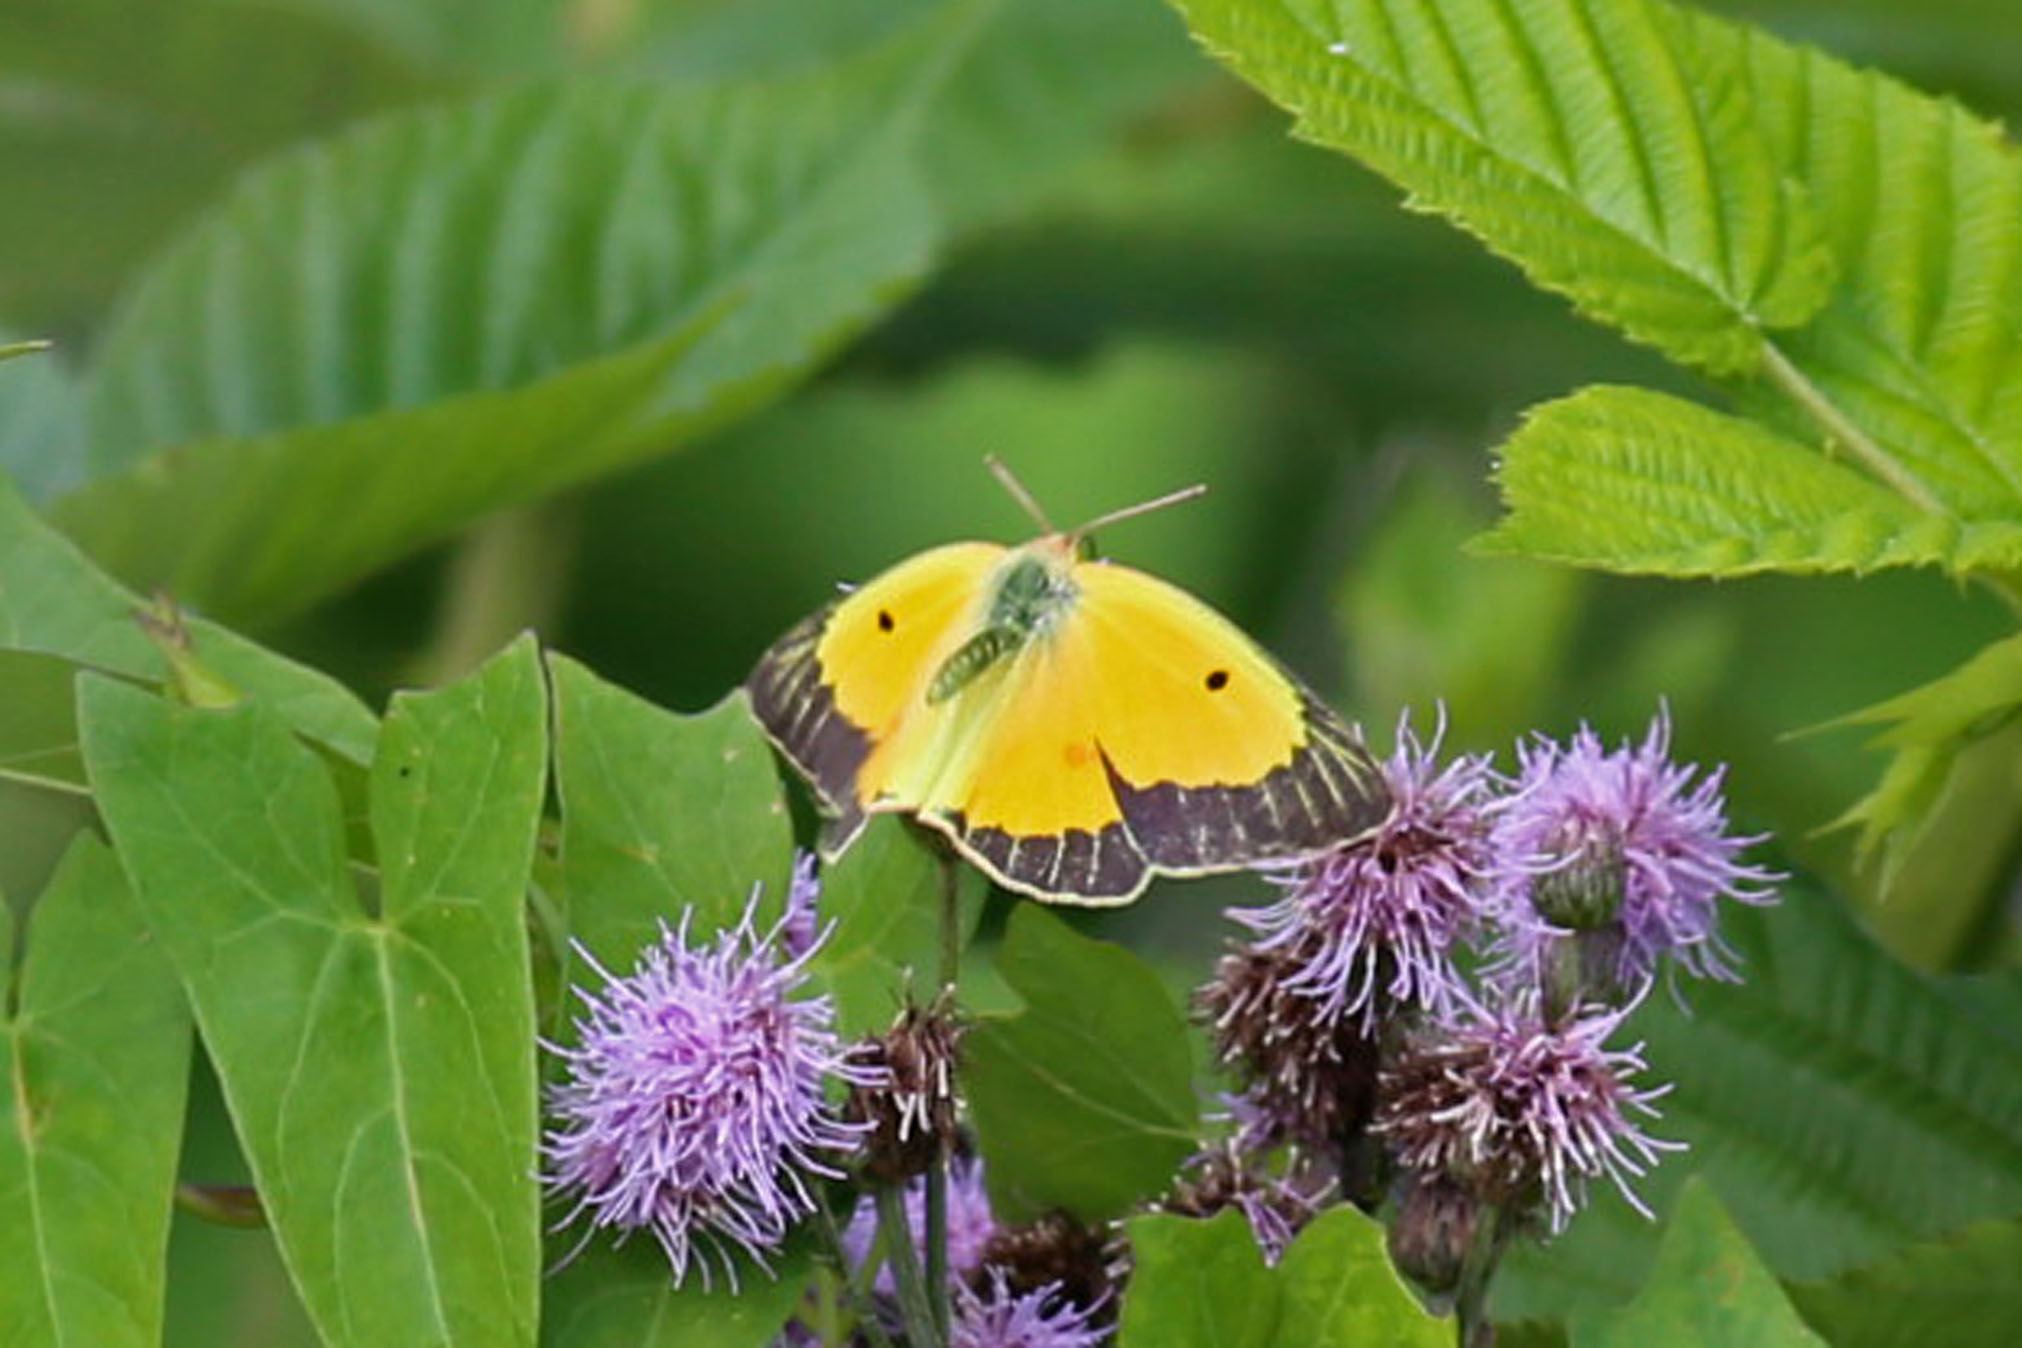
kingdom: Animalia
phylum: Arthropoda
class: Insecta
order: Lepidoptera
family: Pieridae
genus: Colias
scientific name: Colias eurytheme
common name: Alfalfa butterfly
